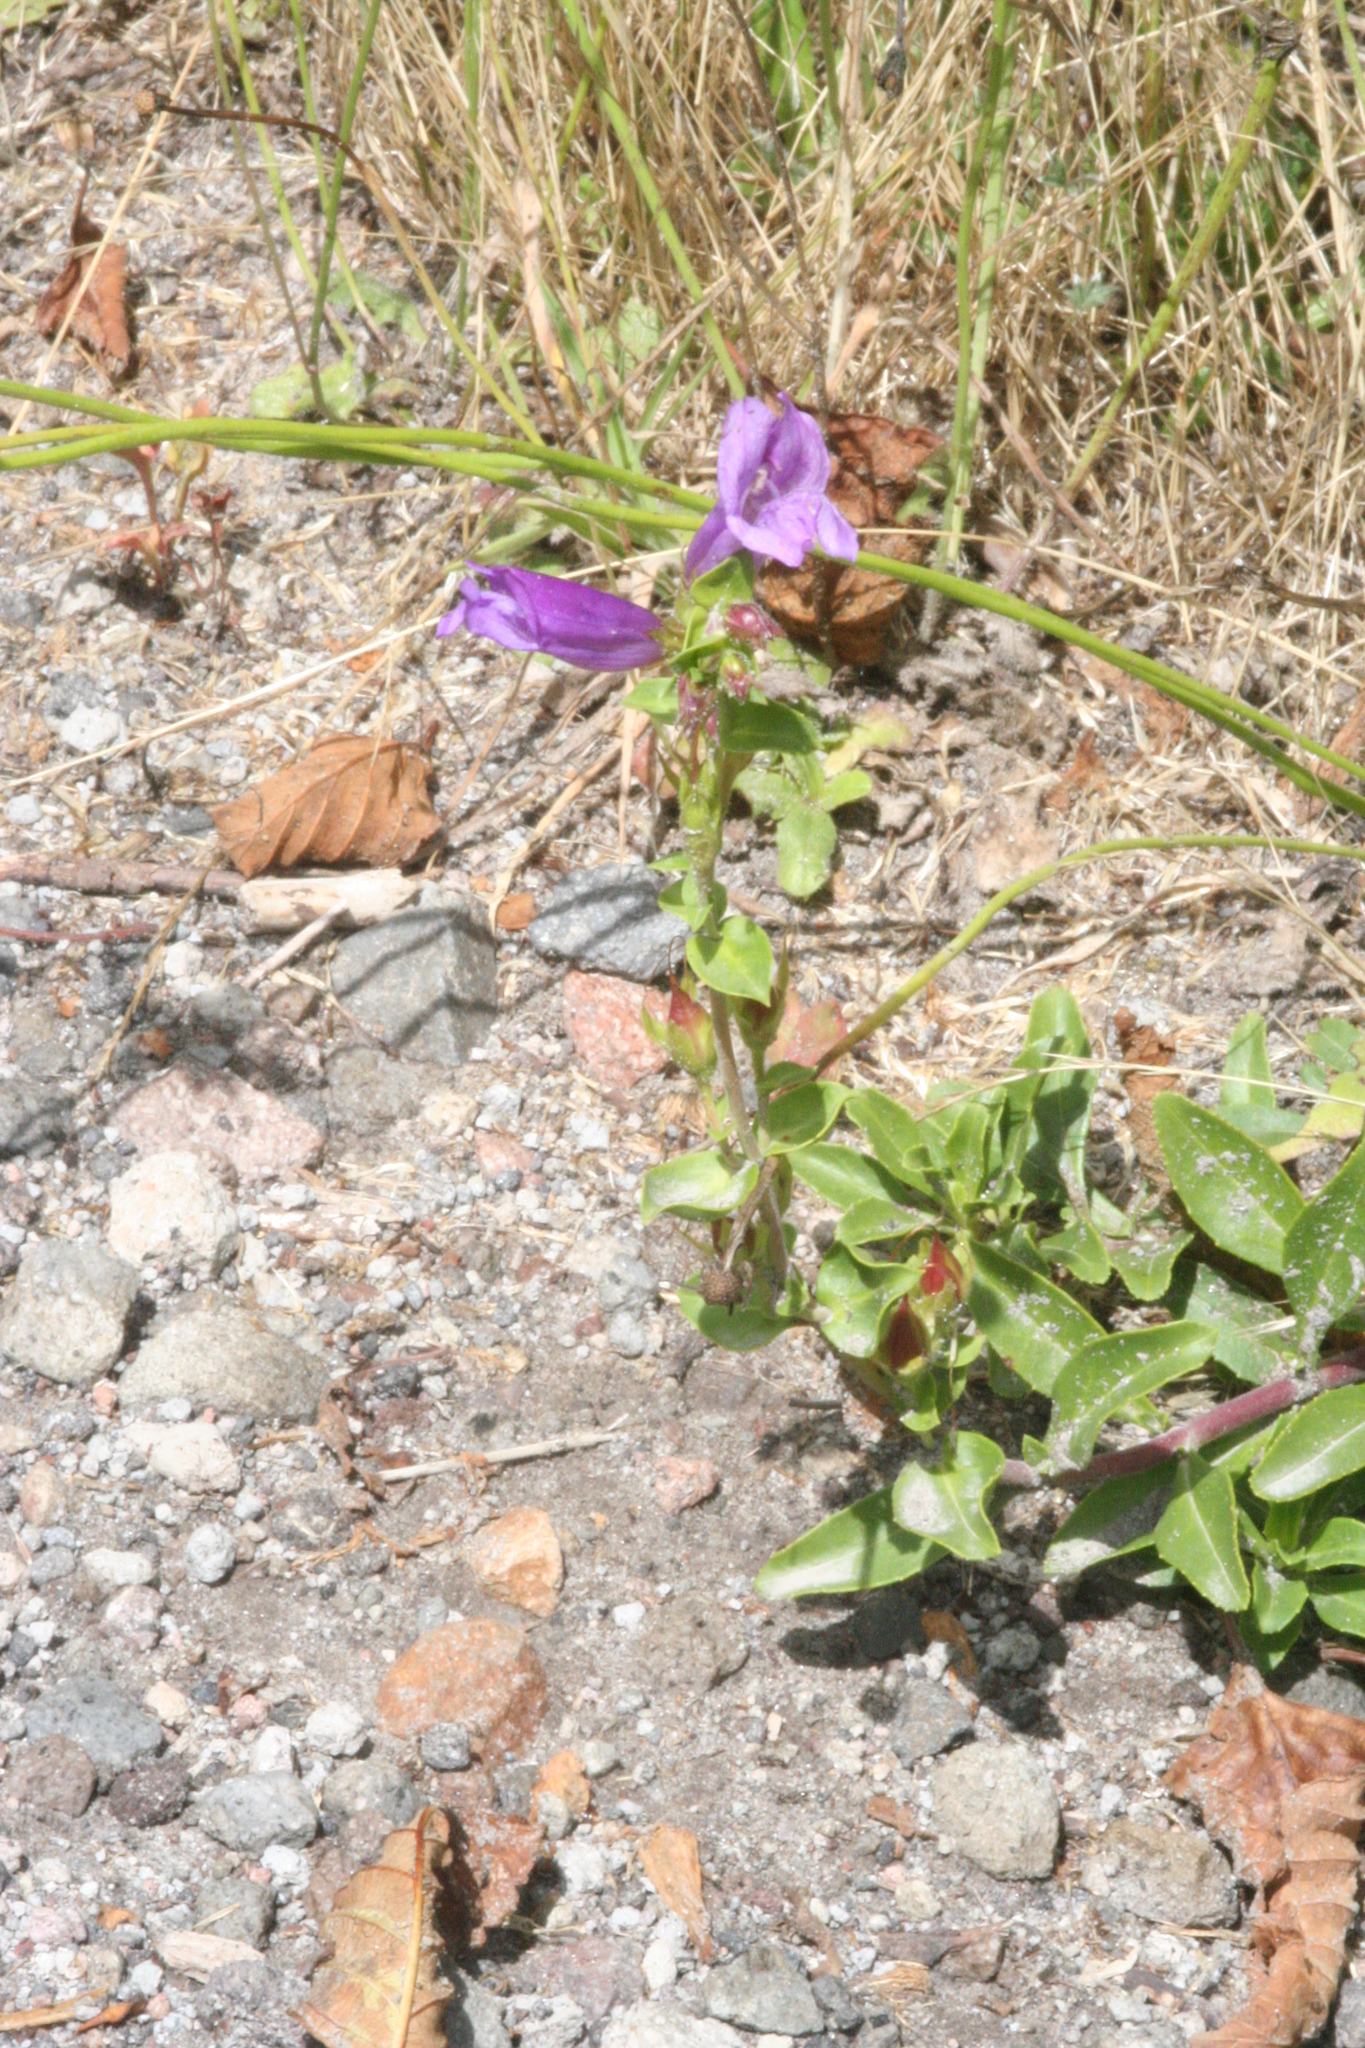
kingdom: Plantae
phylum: Tracheophyta
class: Magnoliopsida
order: Lamiales
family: Plantaginaceae
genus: Penstemon
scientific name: Penstemon cardwellii
